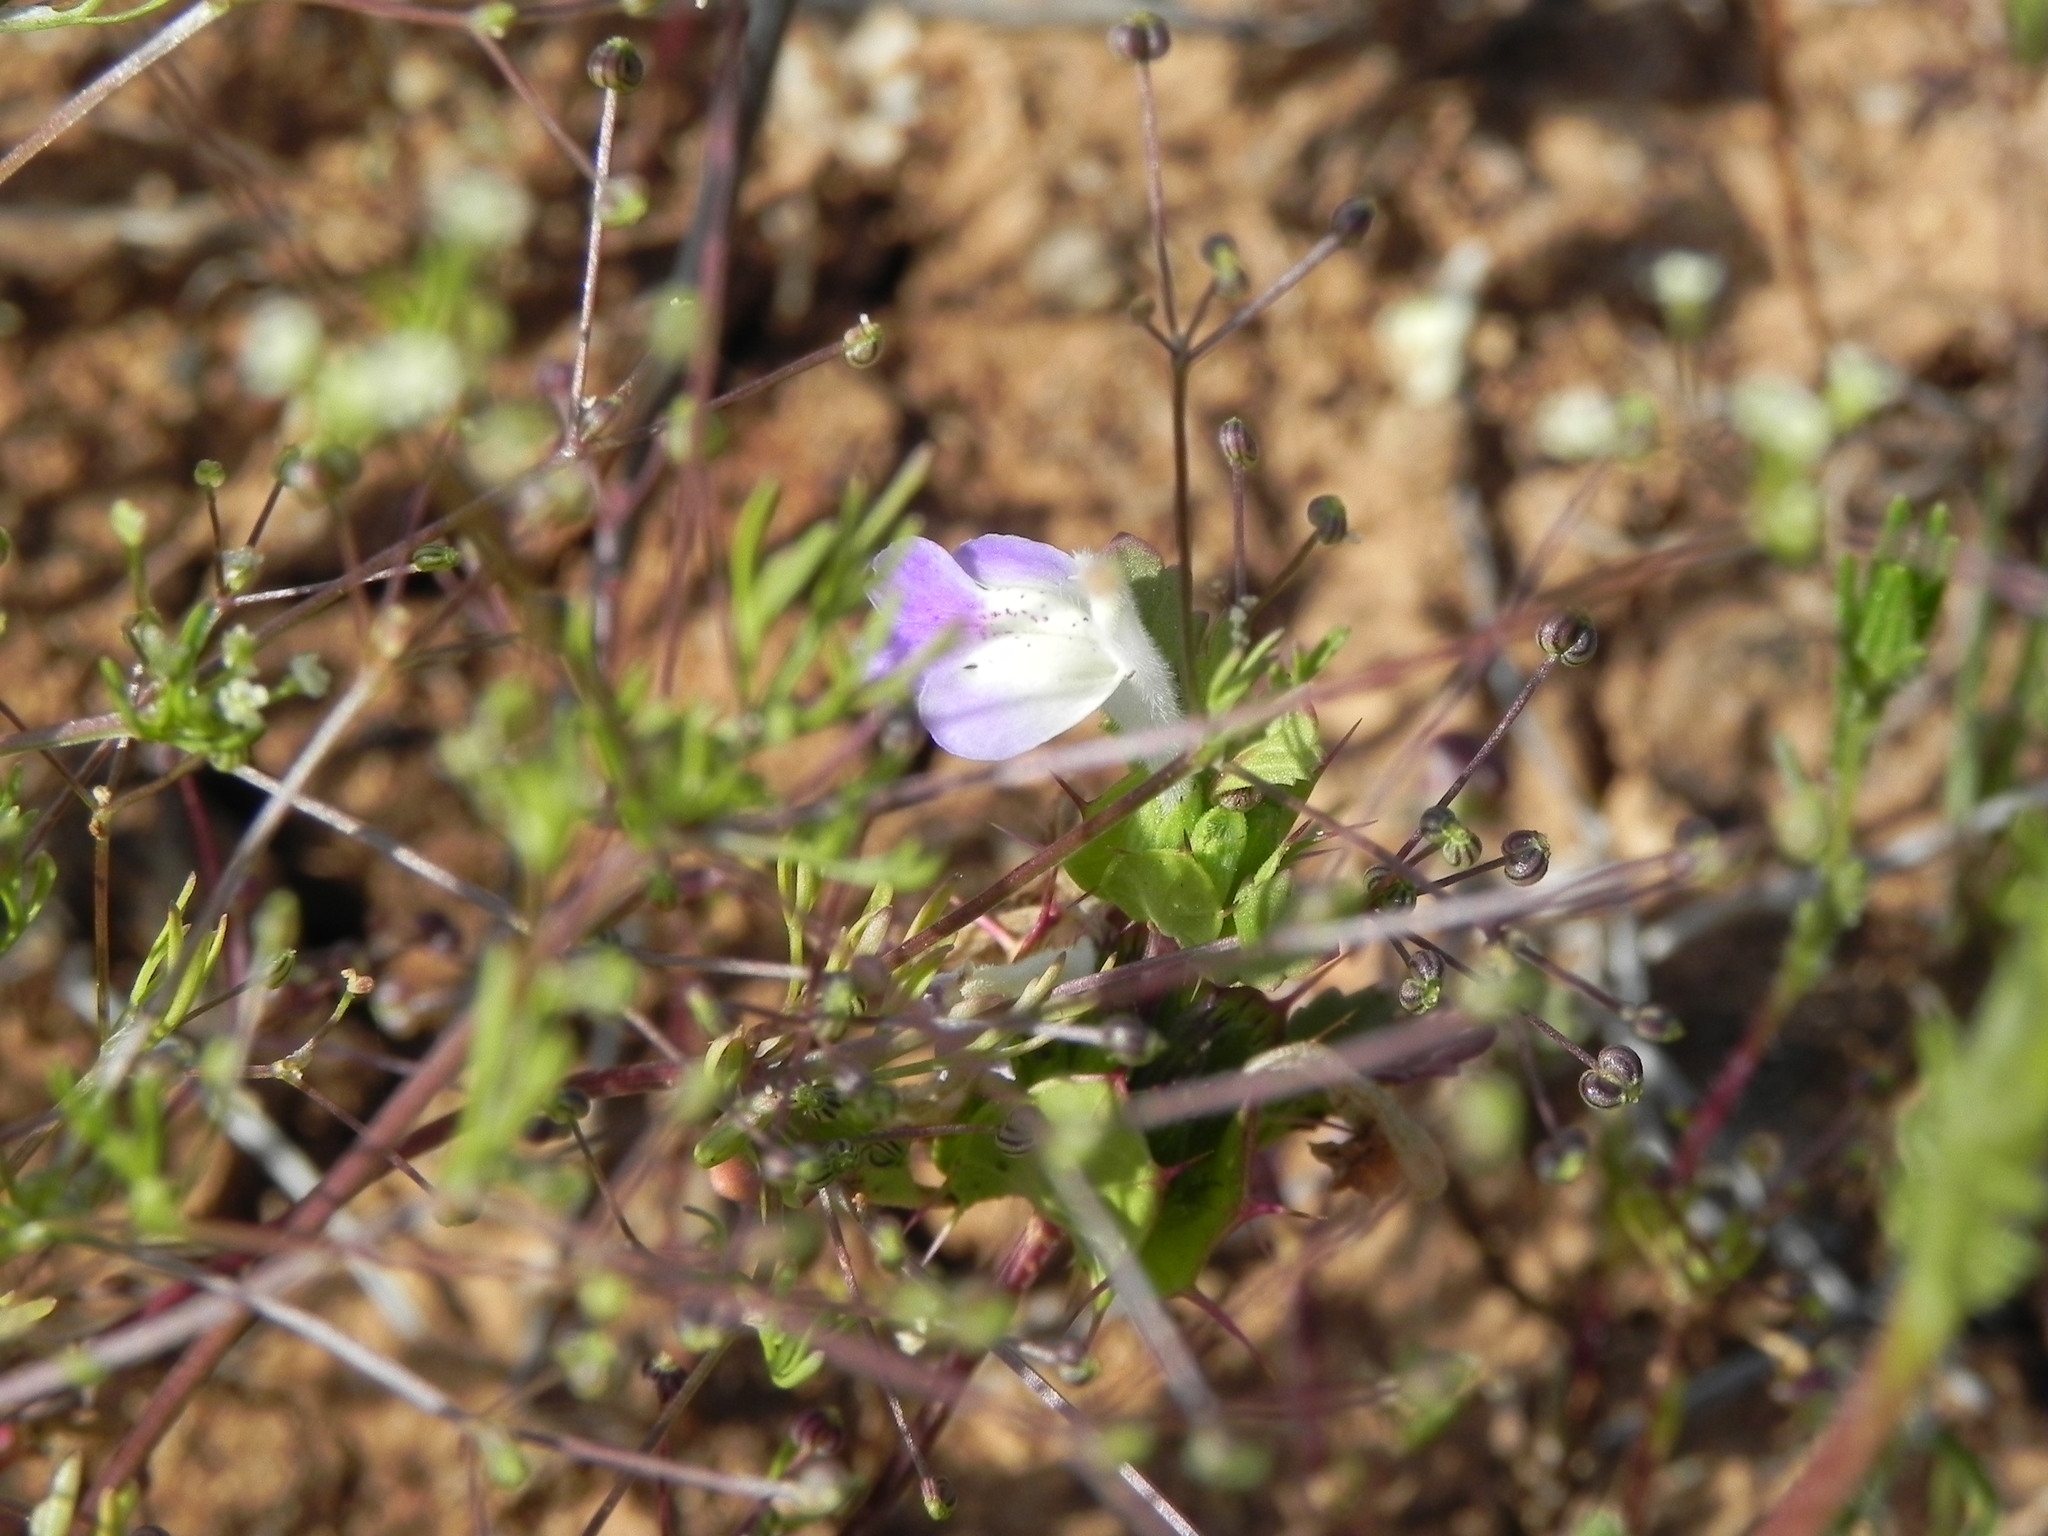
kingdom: Plantae
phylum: Tracheophyta
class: Magnoliopsida
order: Lamiales
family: Lamiaceae
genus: Acanthomintha
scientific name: Acanthomintha ilicifolia
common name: San diego thorn-mint
